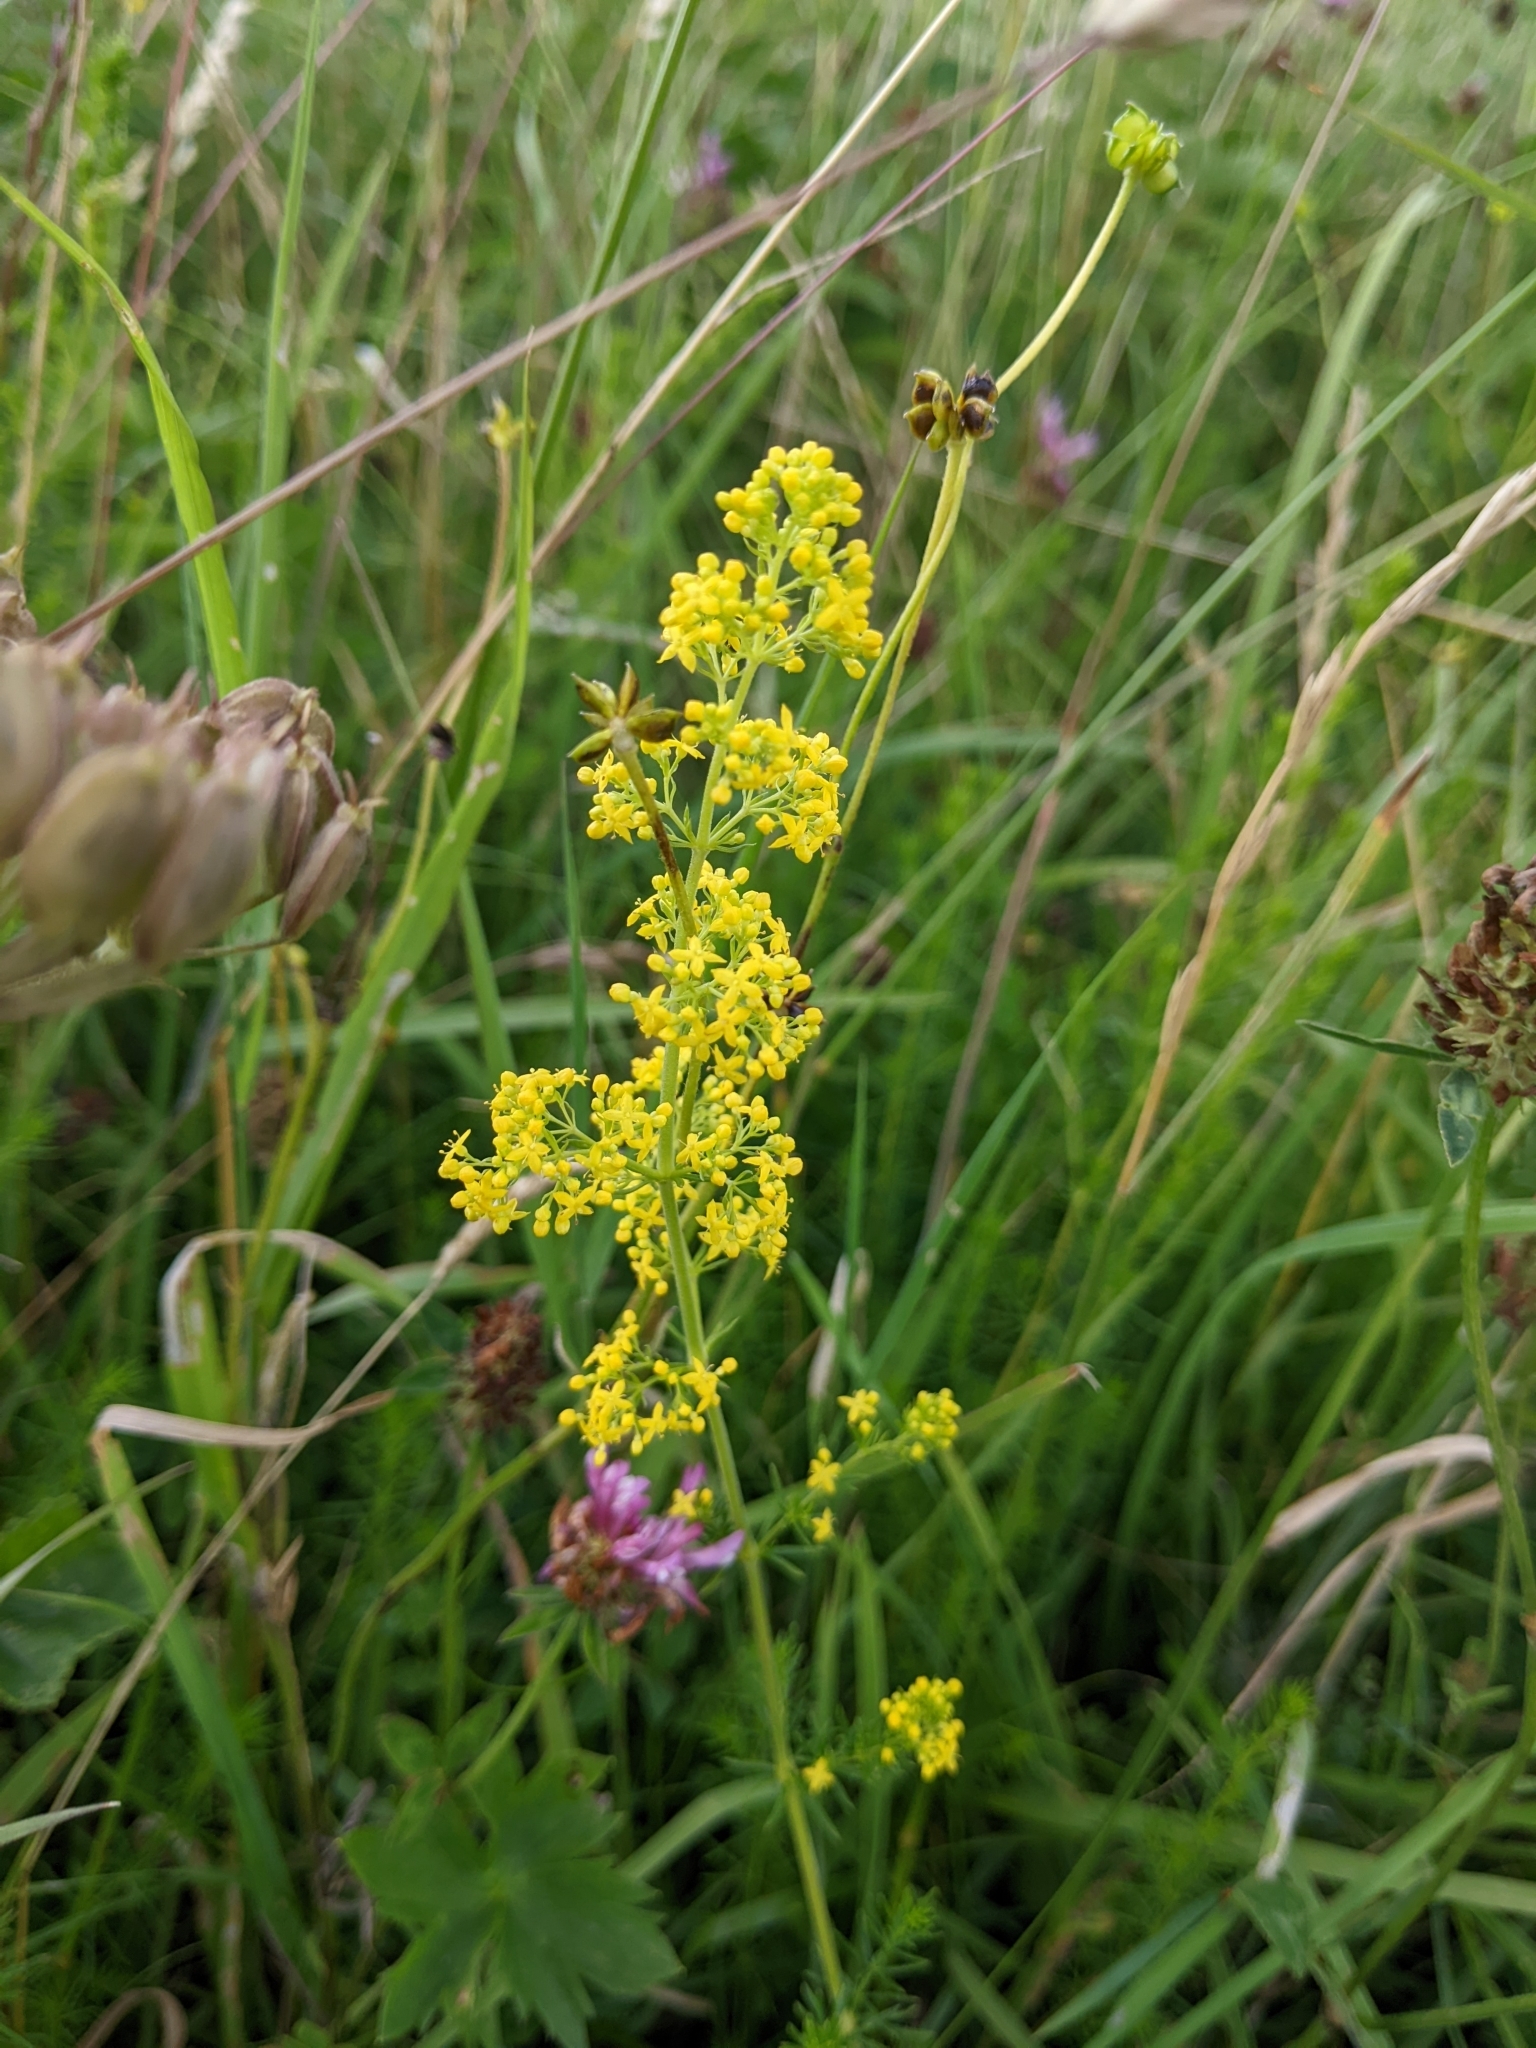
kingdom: Plantae
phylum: Tracheophyta
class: Magnoliopsida
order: Gentianales
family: Rubiaceae
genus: Galium
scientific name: Galium verum
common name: Lady's bedstraw
